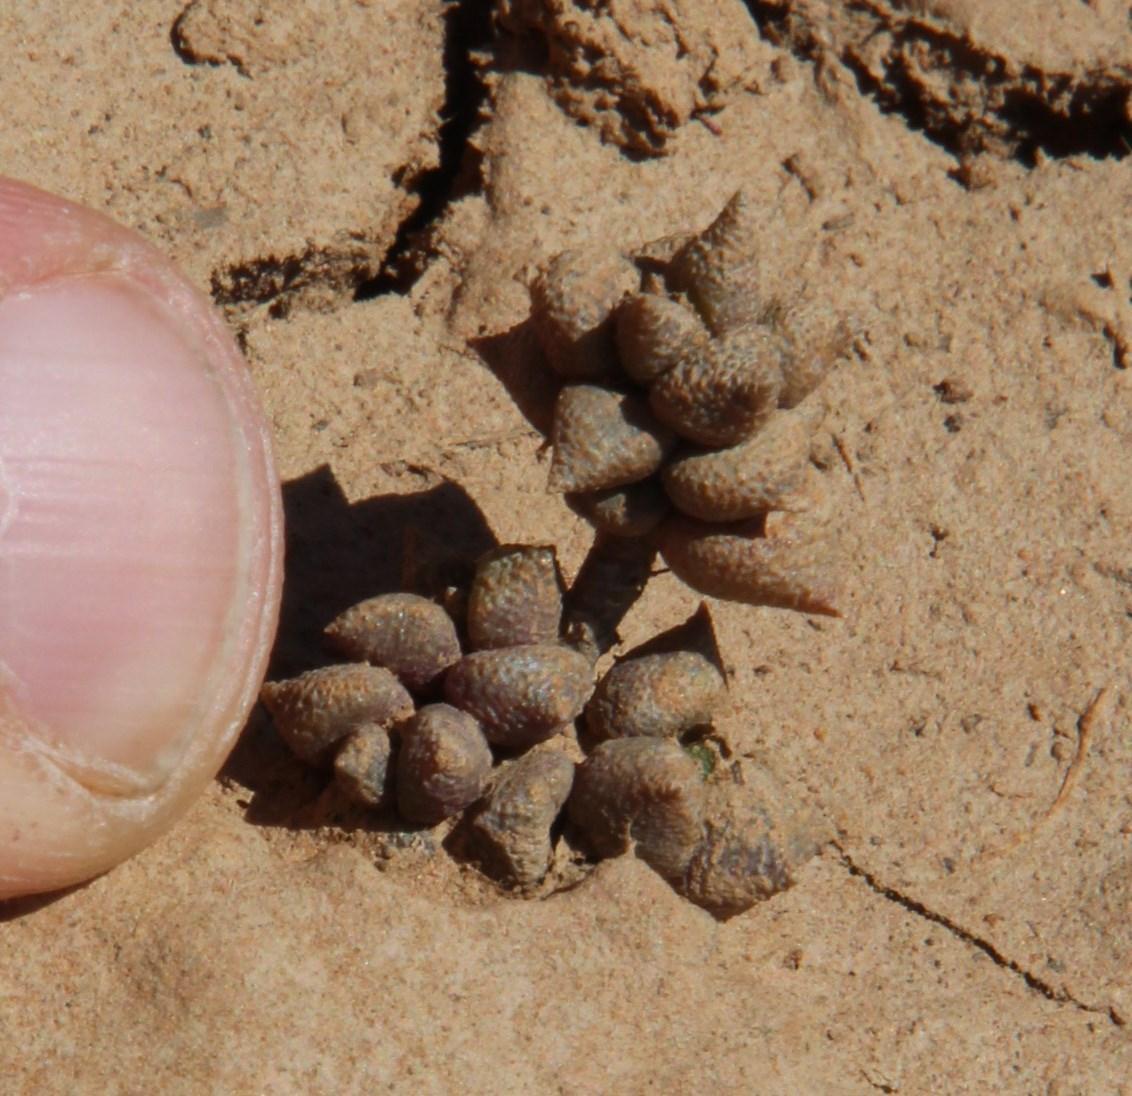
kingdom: Plantae
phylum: Tracheophyta
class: Magnoliopsida
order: Caryophyllales
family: Anacampserotaceae
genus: Anacampseros
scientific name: Anacampseros arachnoides
